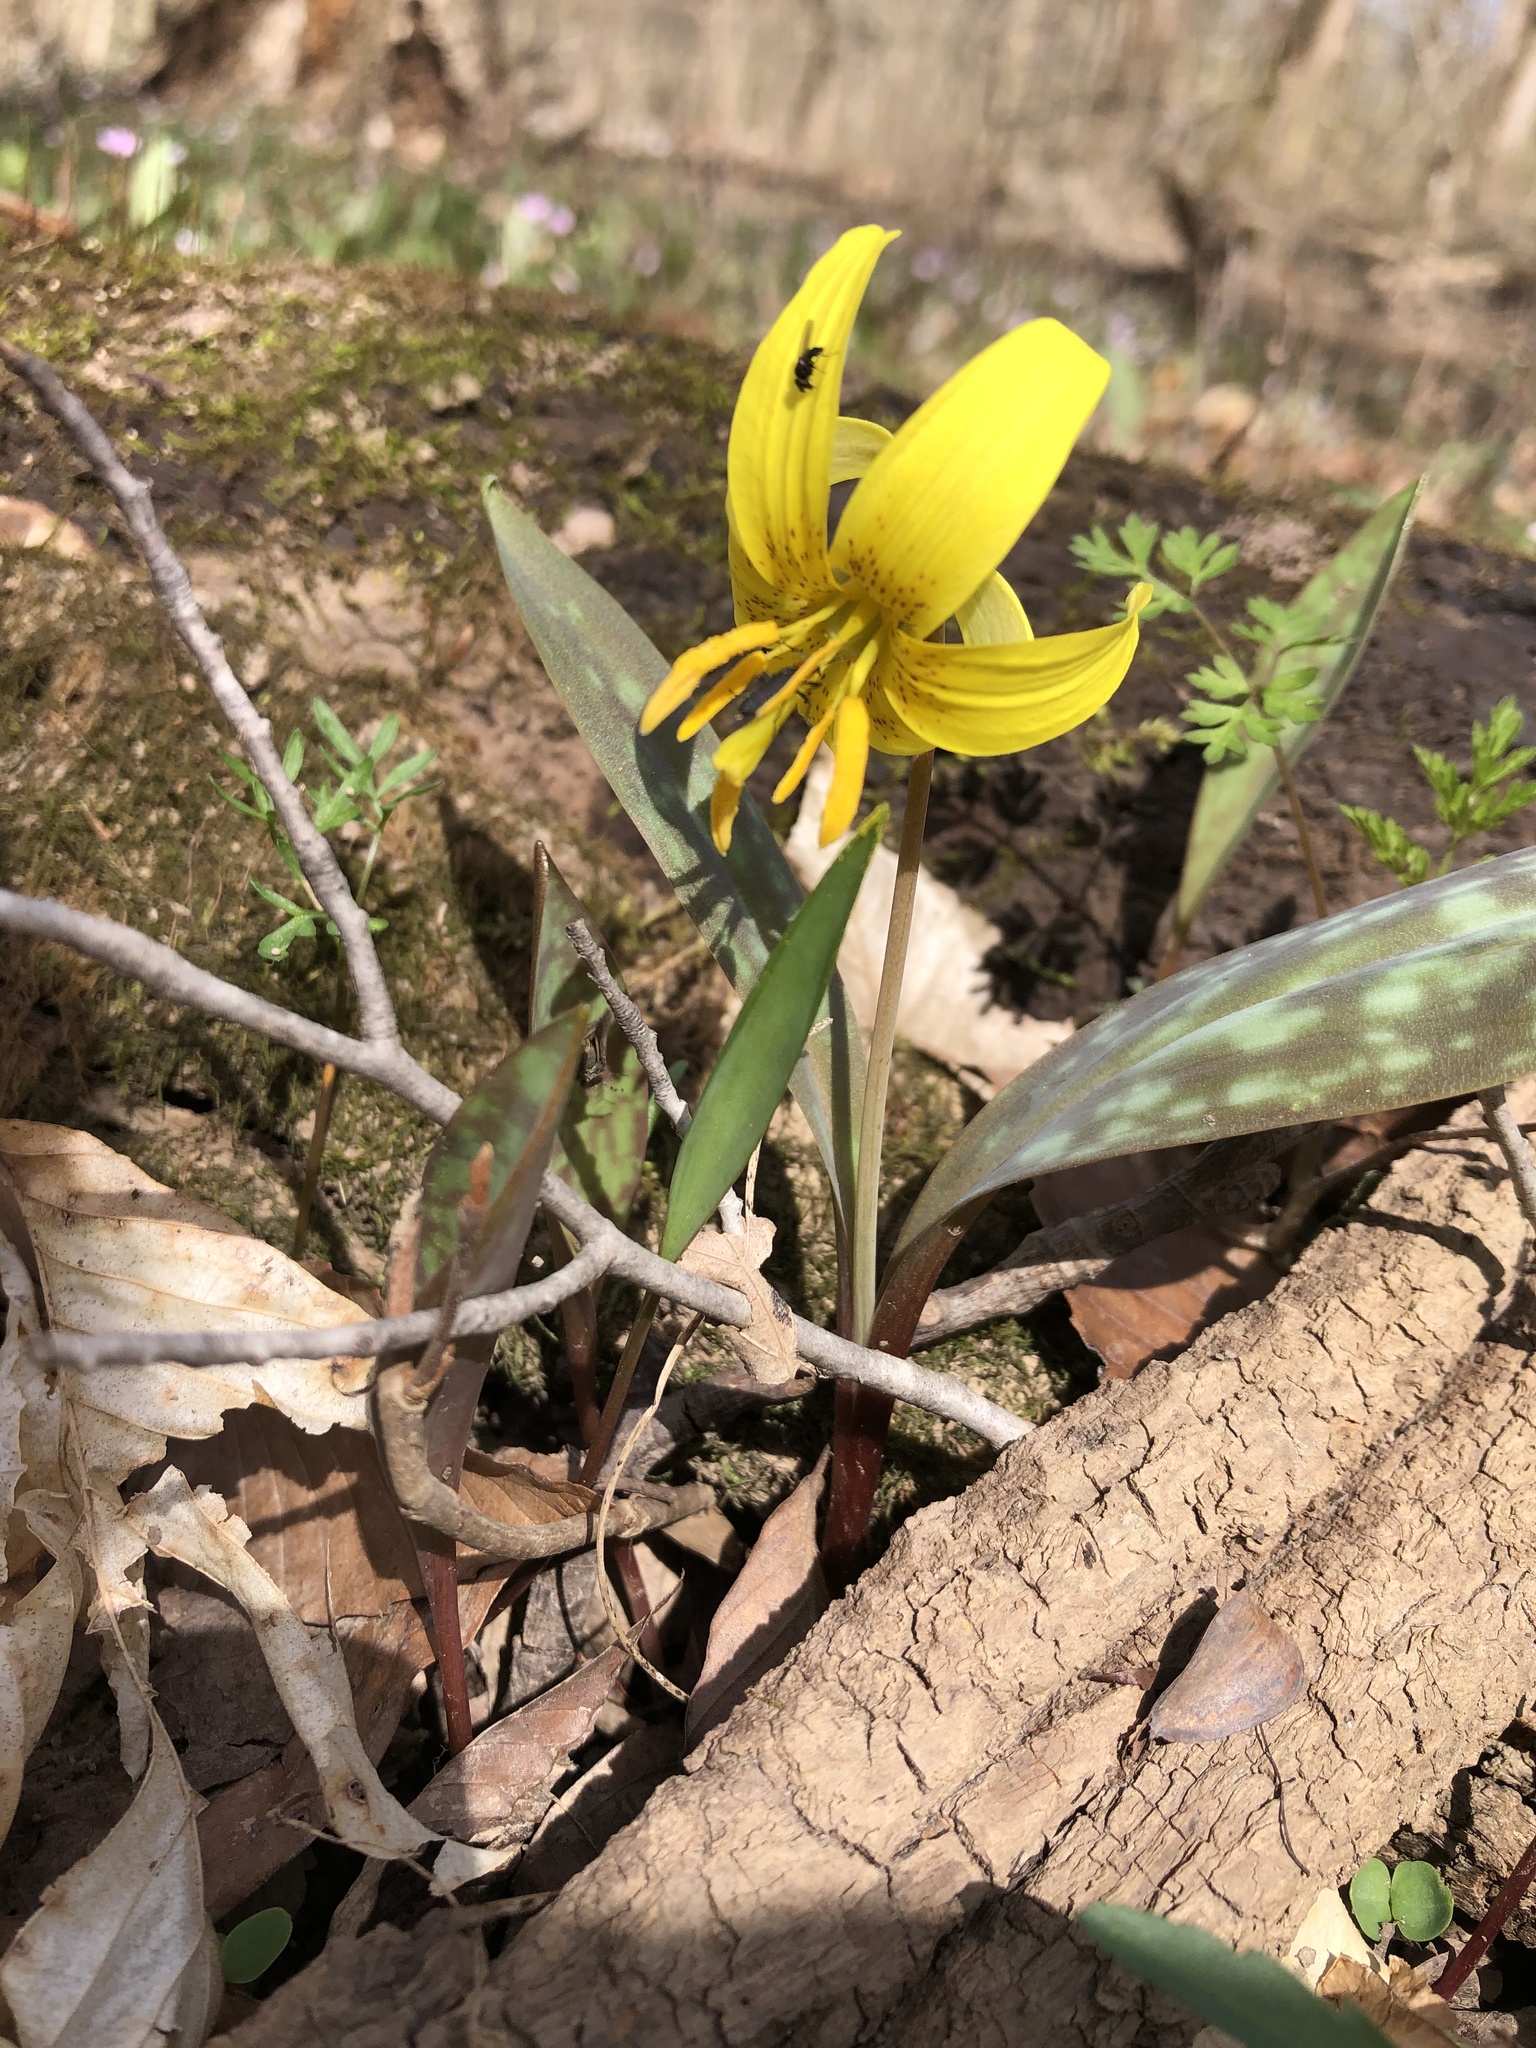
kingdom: Plantae
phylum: Tracheophyta
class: Liliopsida
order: Liliales
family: Liliaceae
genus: Erythronium
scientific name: Erythronium americanum
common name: Yellow adder's-tongue
